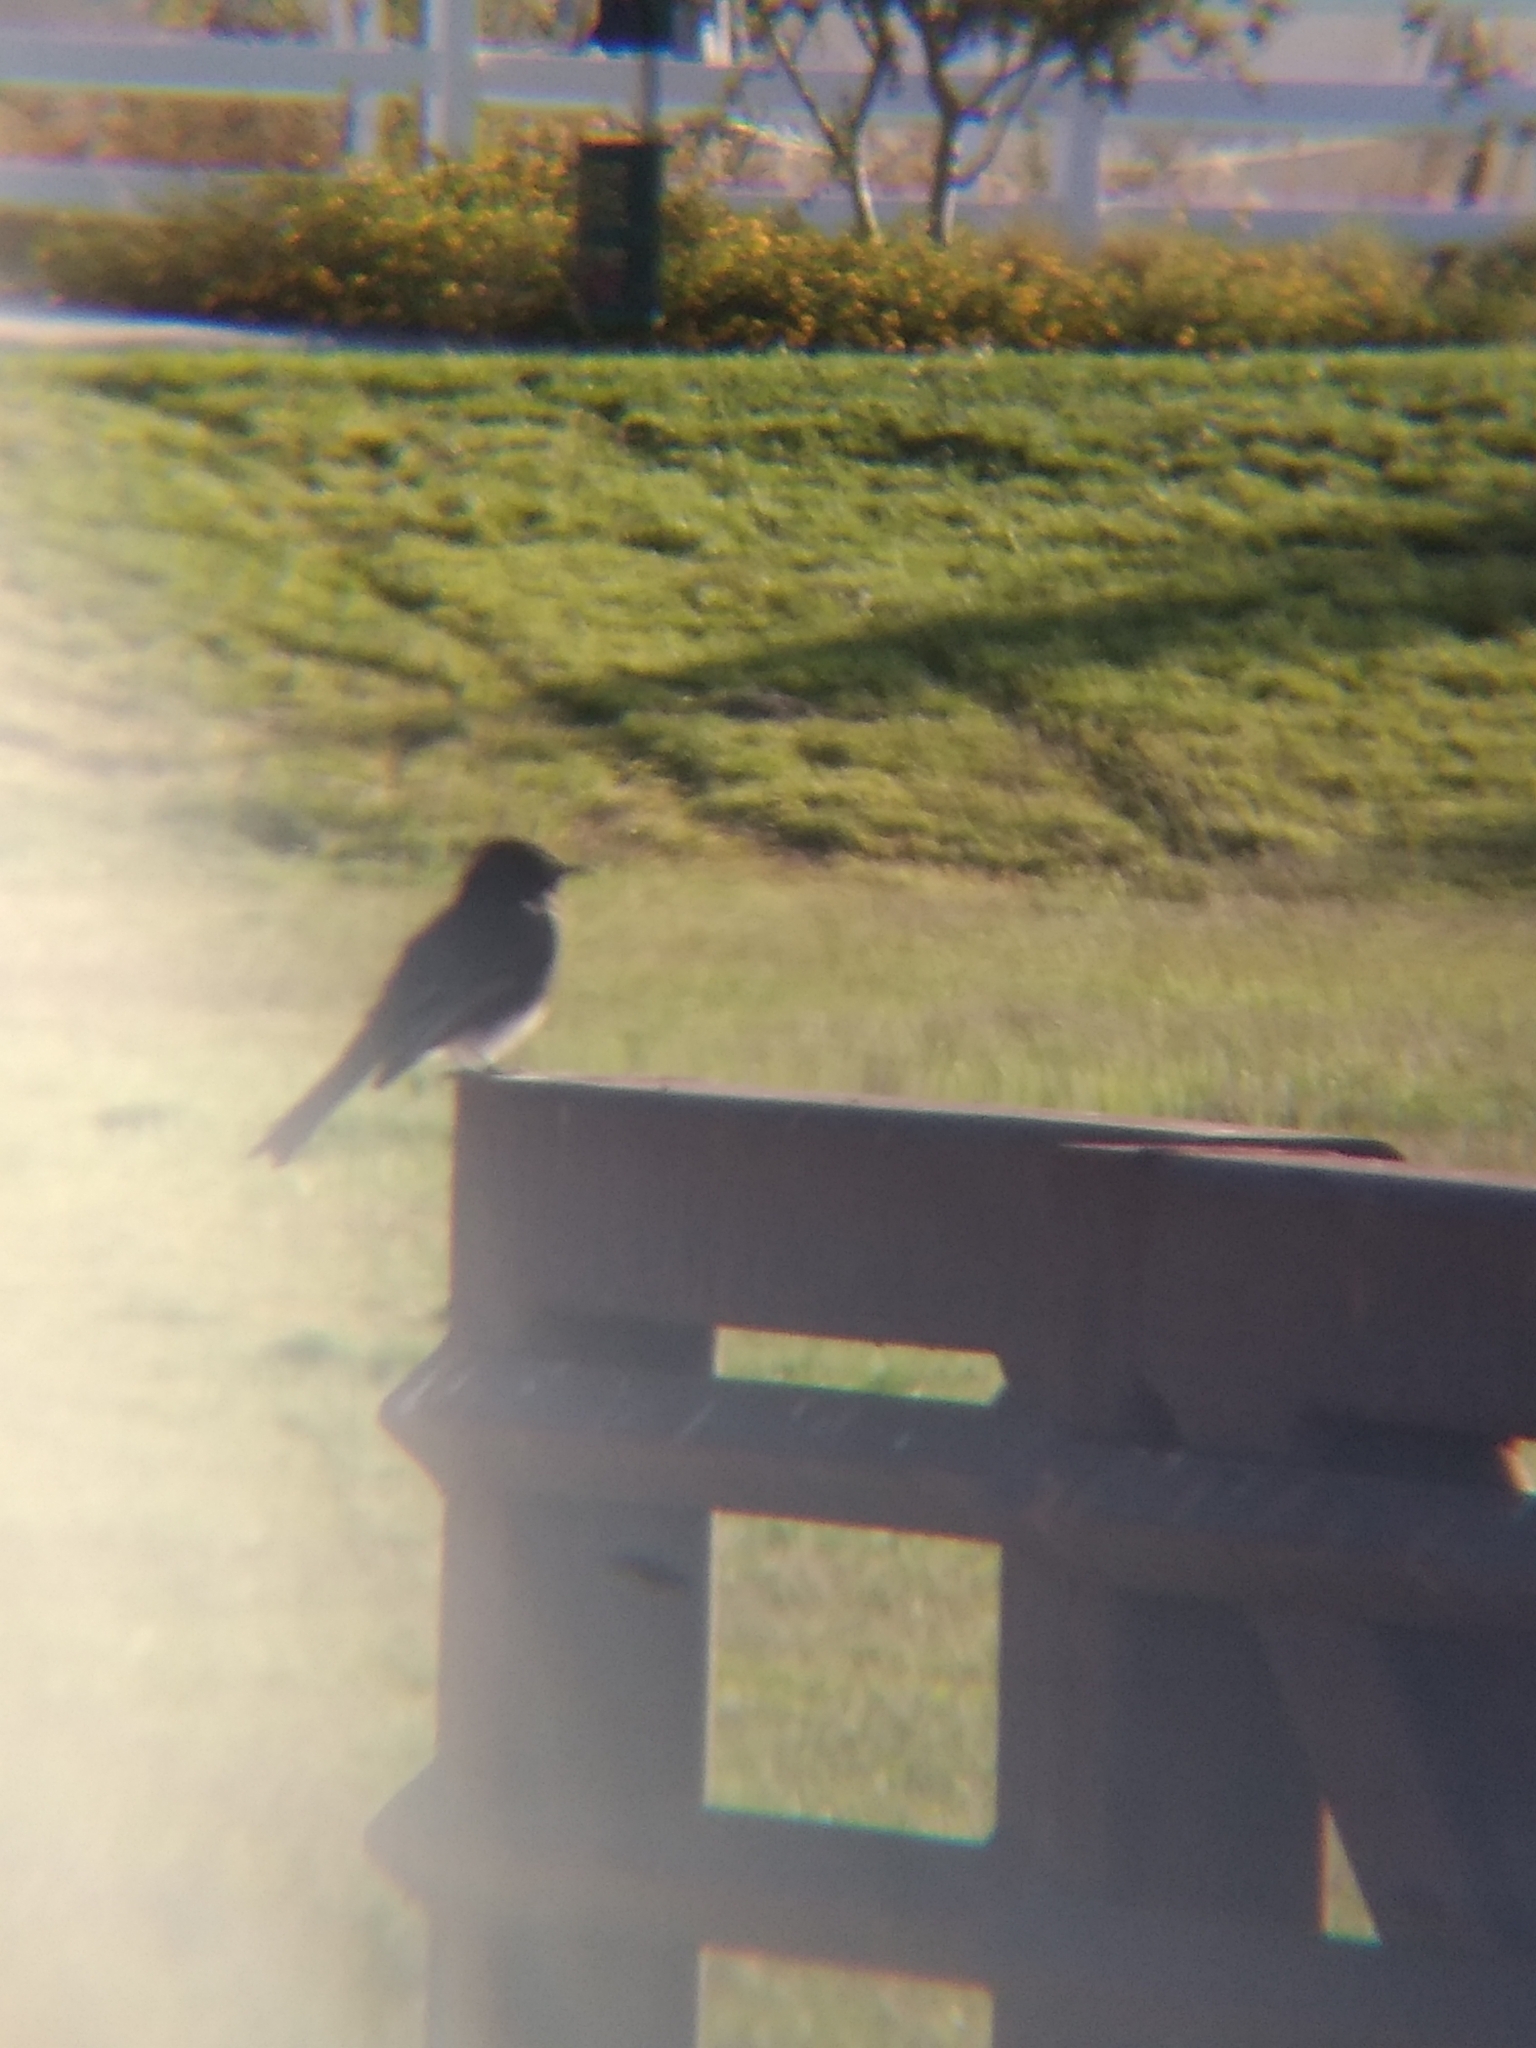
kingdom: Animalia
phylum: Chordata
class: Aves
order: Passeriformes
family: Tyrannidae
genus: Sayornis
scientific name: Sayornis nigricans
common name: Black phoebe
